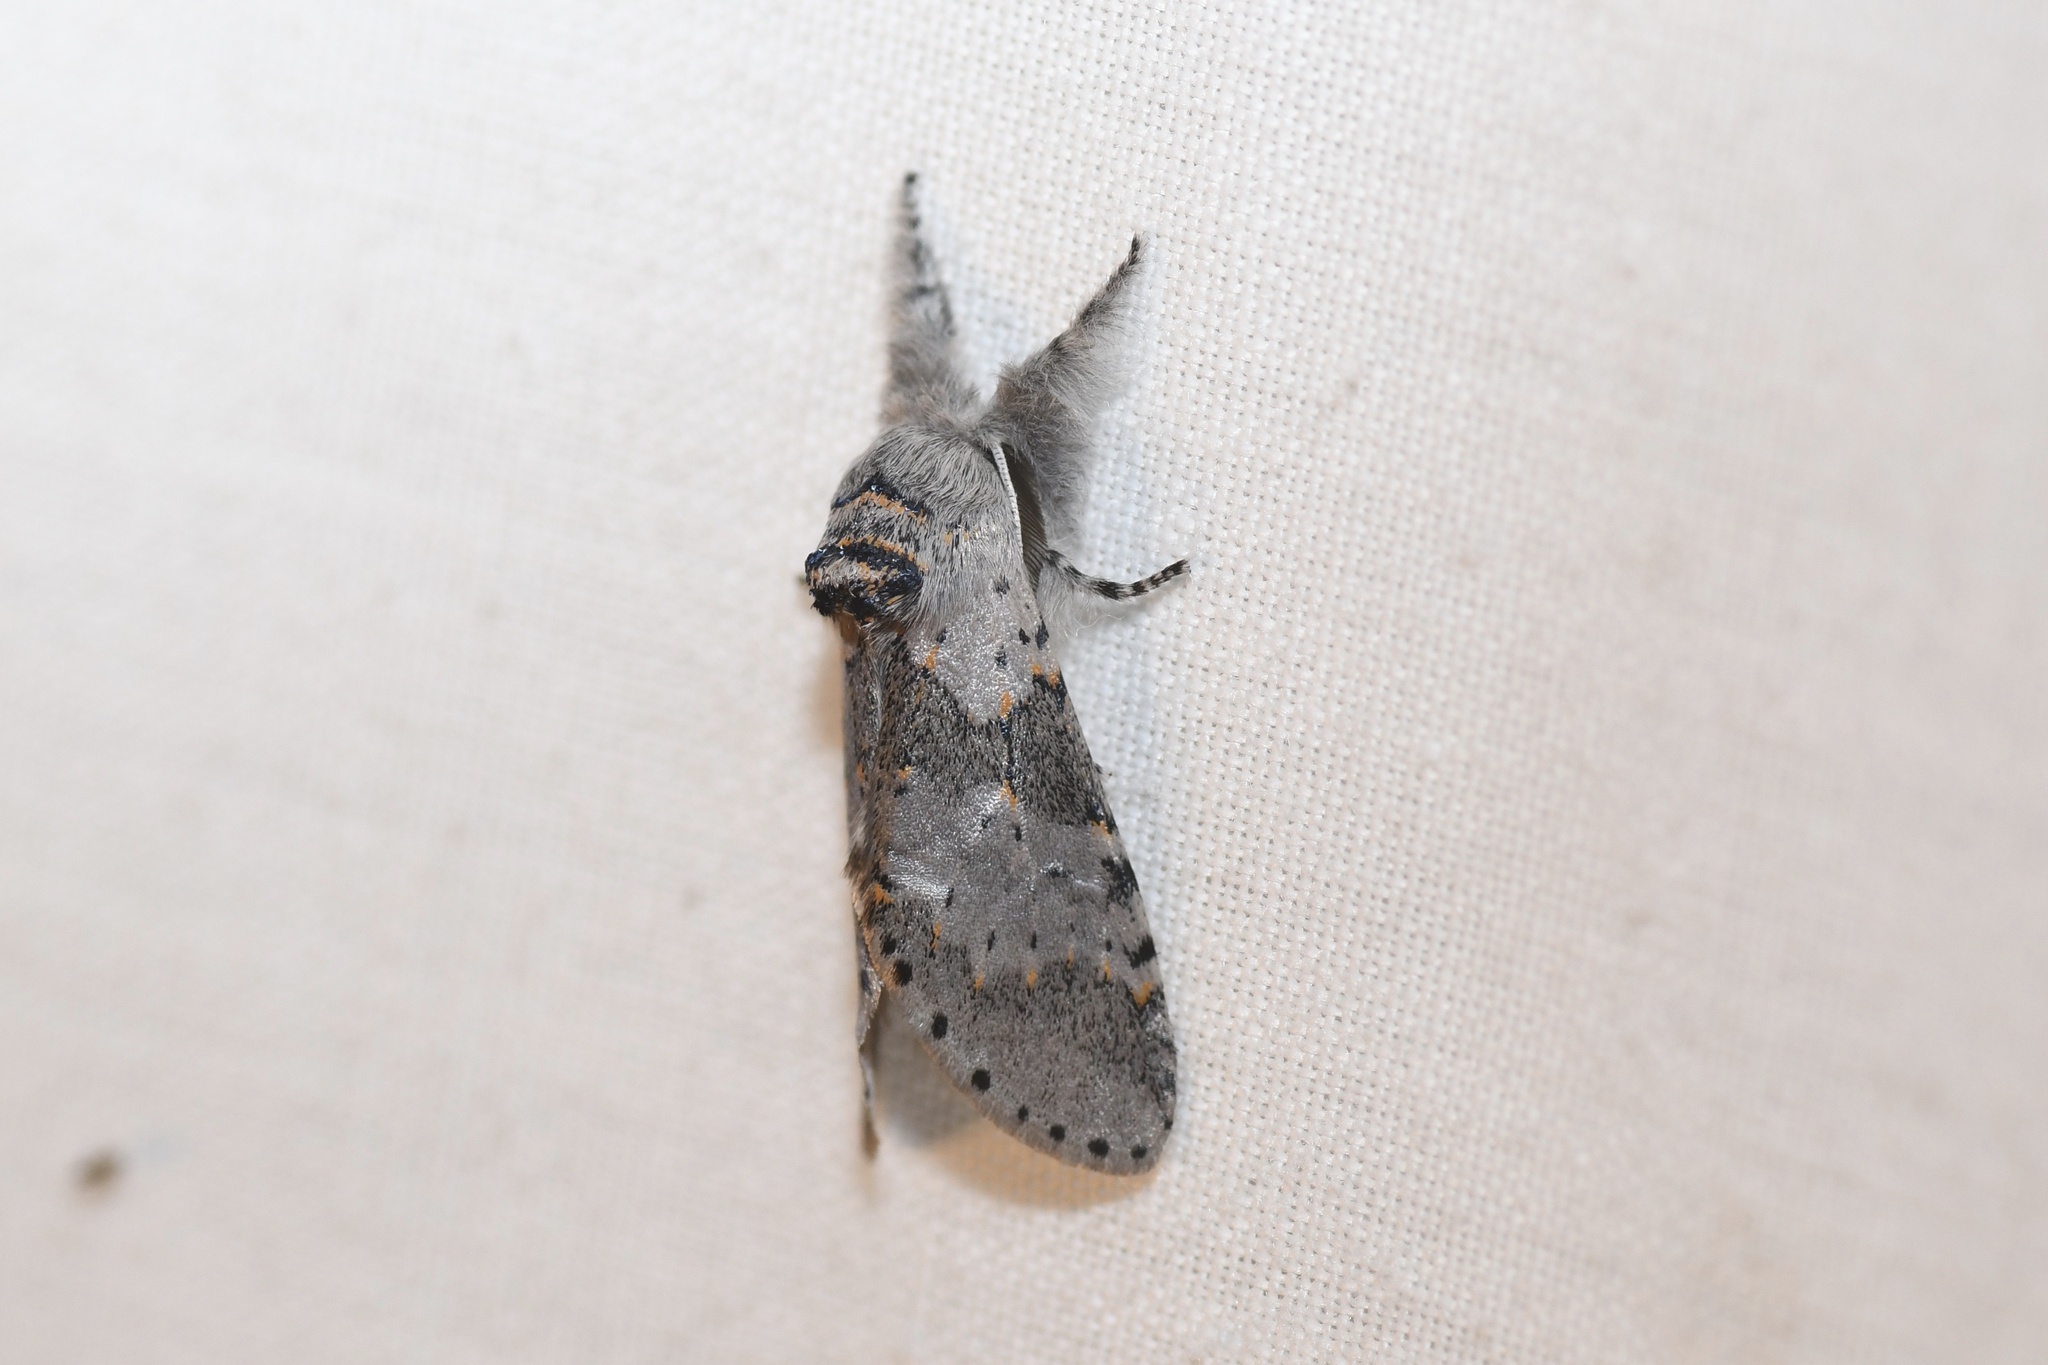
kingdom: Animalia
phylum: Arthropoda
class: Insecta
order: Lepidoptera
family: Notodontidae
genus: Furcula
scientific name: Furcula cinerea
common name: Gray furcula
